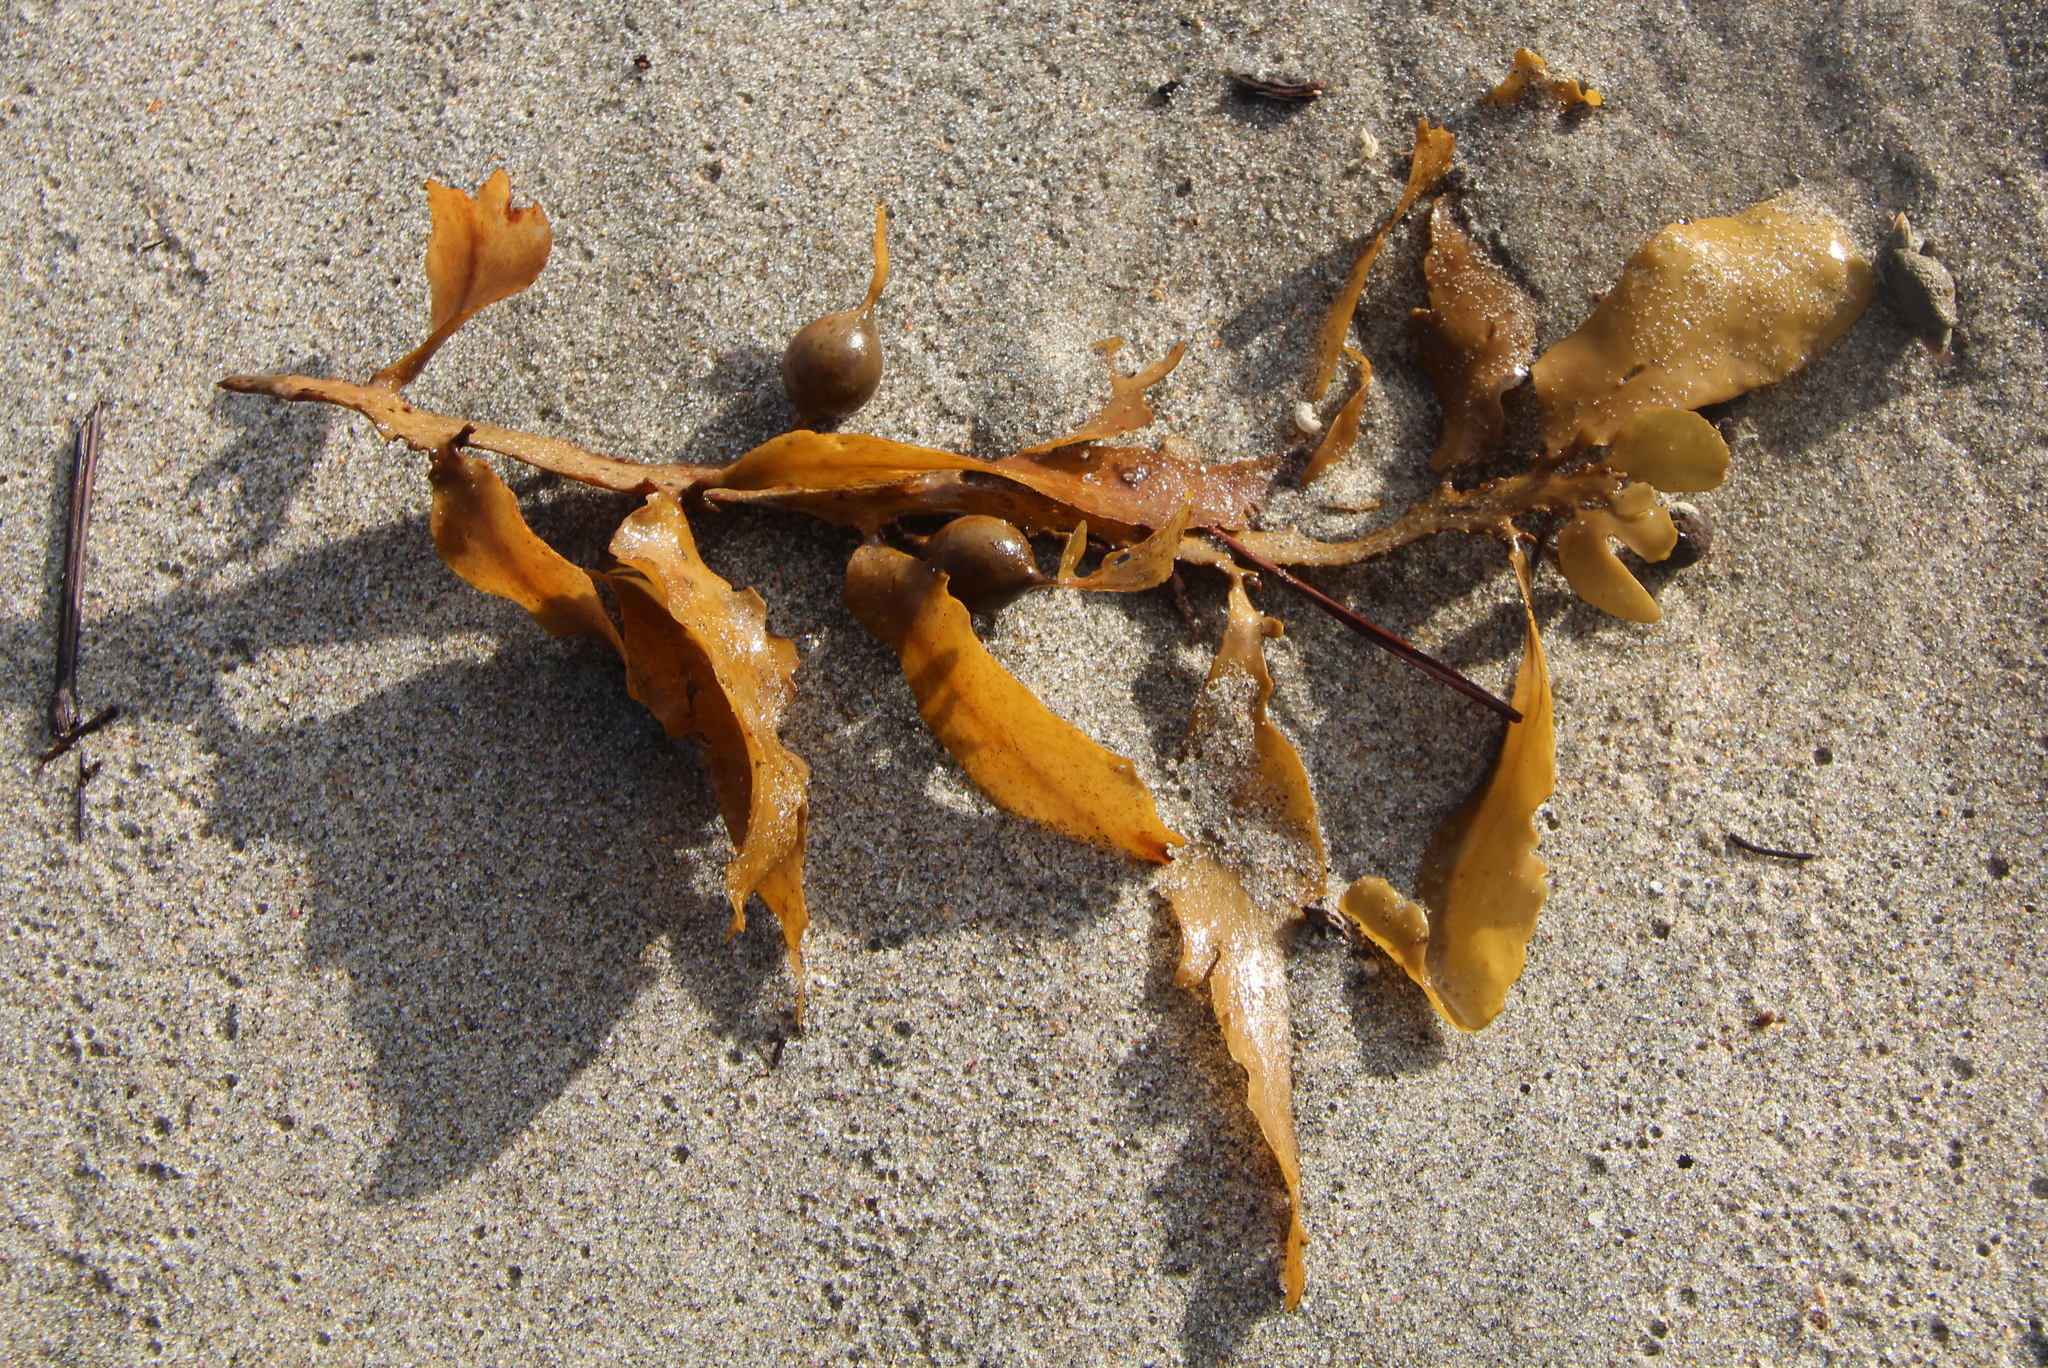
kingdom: Chromista
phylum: Ochrophyta
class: Phaeophyceae
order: Fucales
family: Sargassaceae
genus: Carpophyllum
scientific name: Carpophyllum flexuosum
